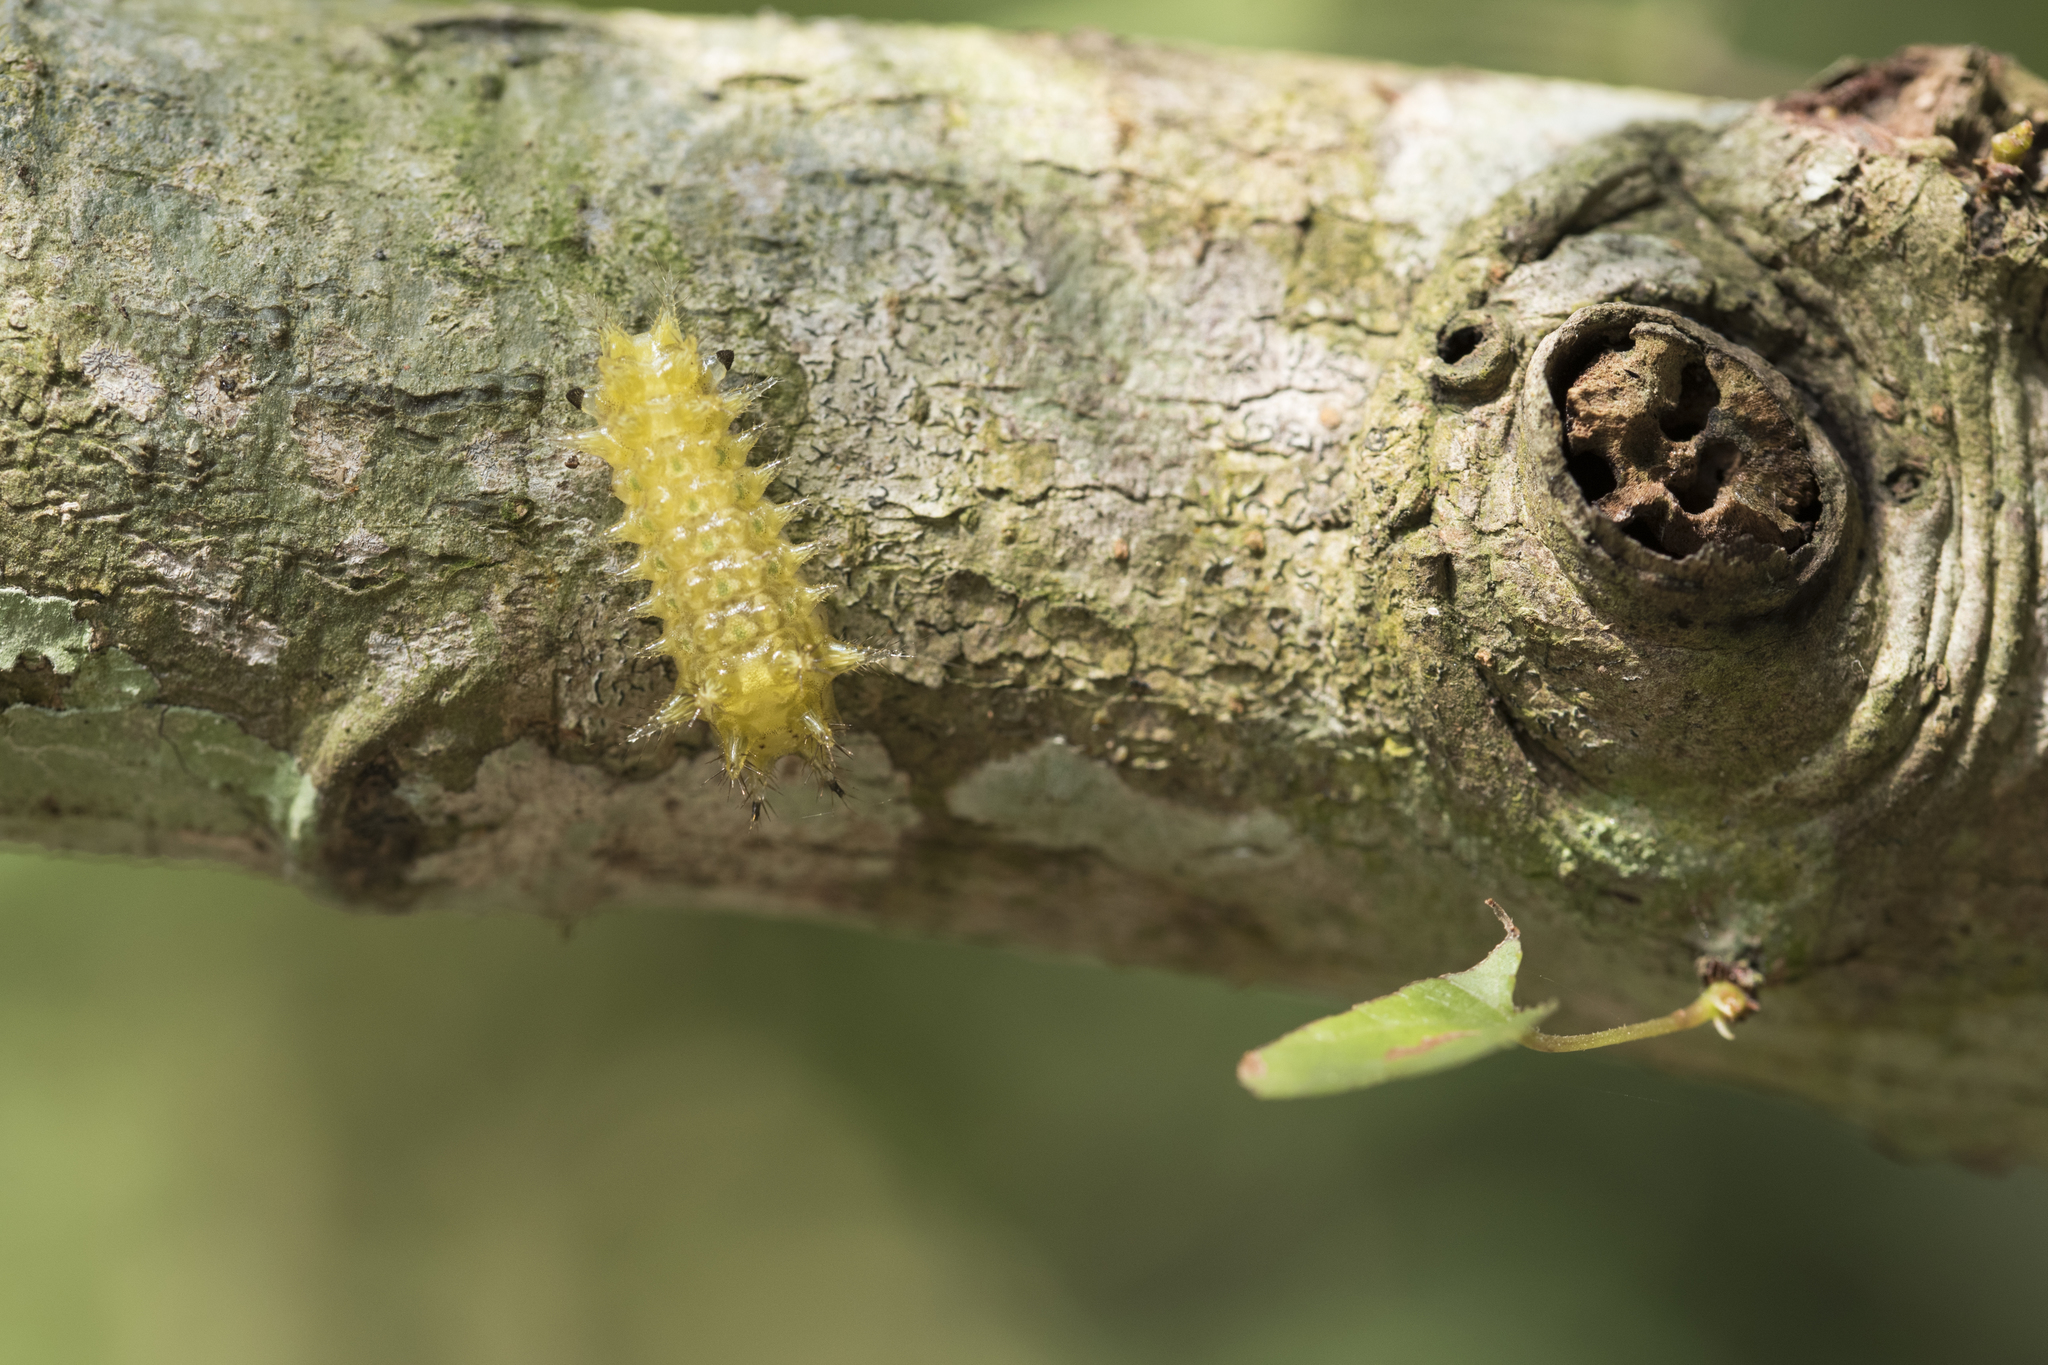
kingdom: Animalia
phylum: Arthropoda
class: Insecta
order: Lepidoptera
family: Limacodidae
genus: Scopelodes
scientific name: Scopelodes contracta
